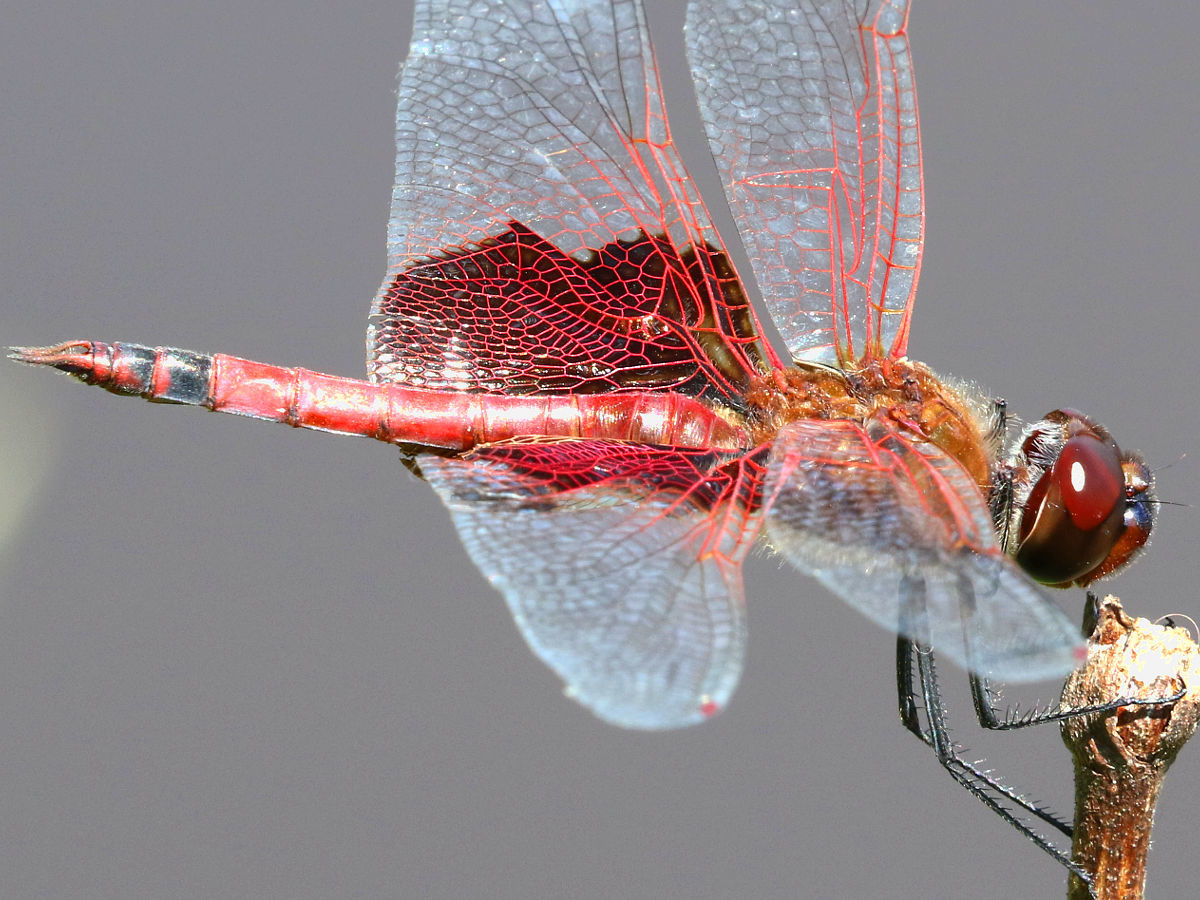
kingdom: Animalia
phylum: Arthropoda
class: Insecta
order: Odonata
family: Libellulidae
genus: Tramea
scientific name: Tramea carolina
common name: Carolina saddlebags
